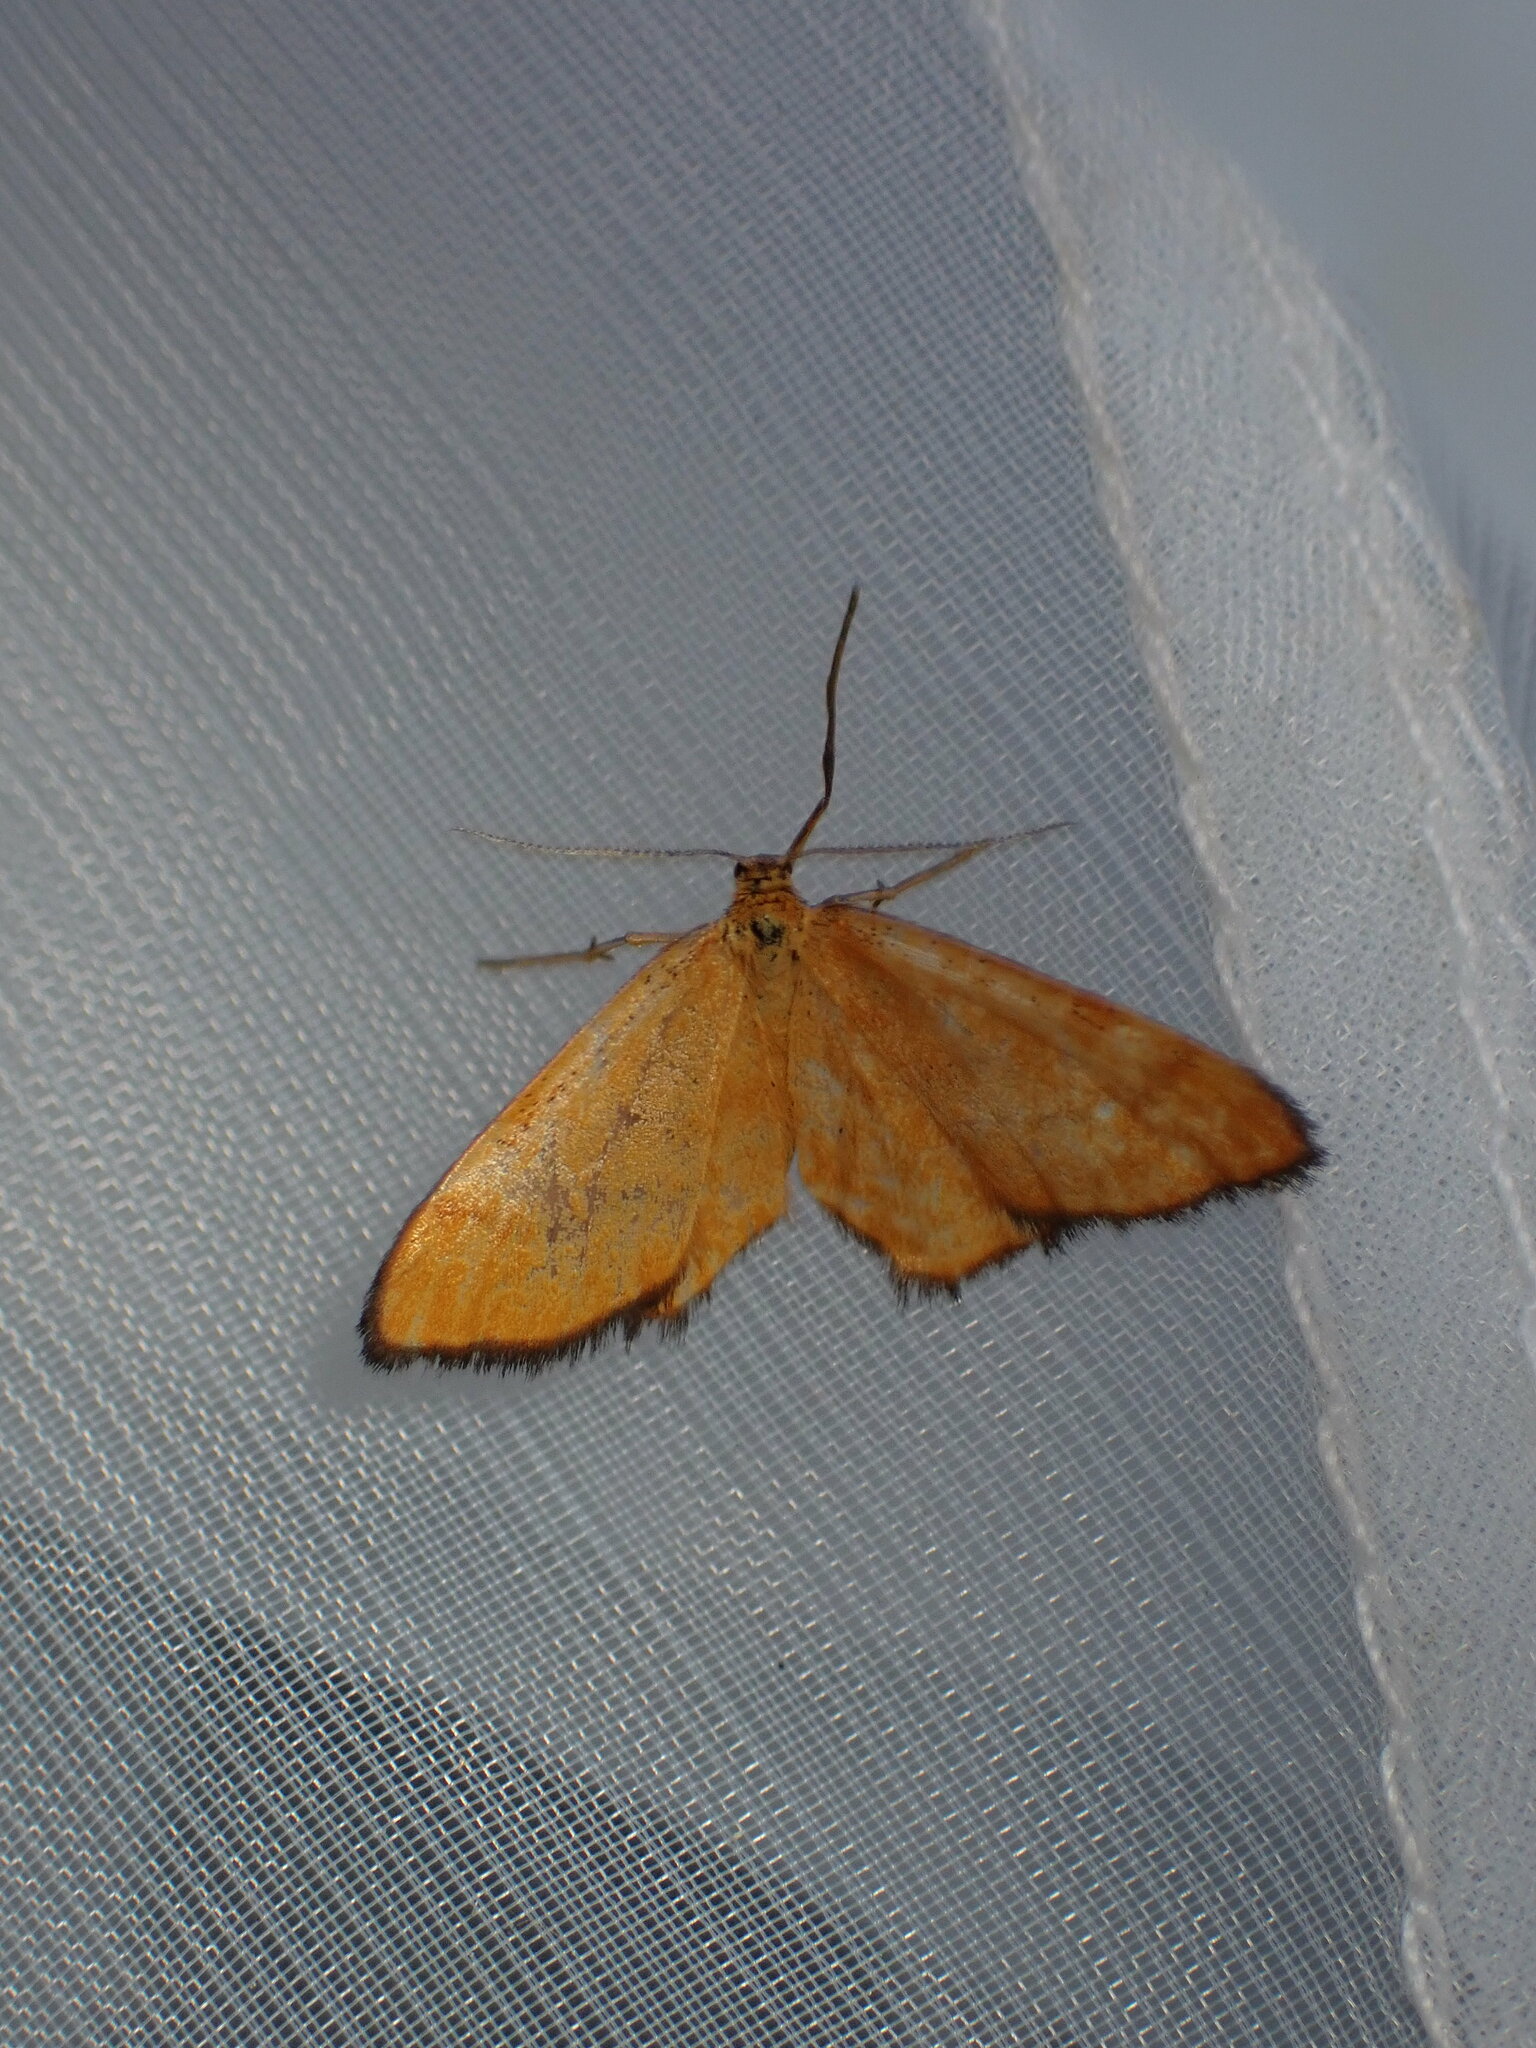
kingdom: Animalia
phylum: Arthropoda
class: Insecta
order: Lepidoptera
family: Geometridae
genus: Idaea
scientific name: Idaea flaveolaria
